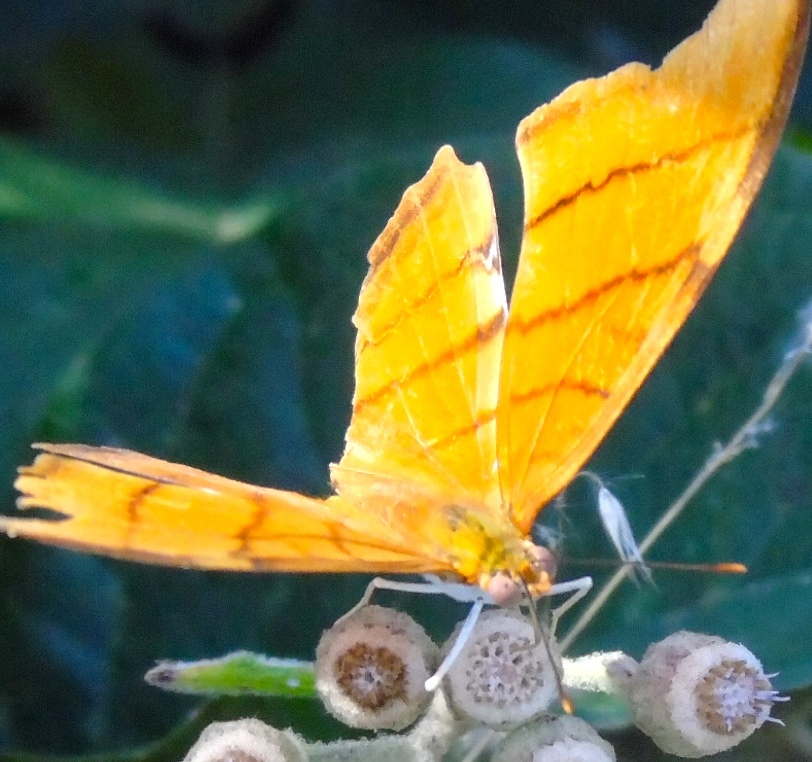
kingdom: Animalia
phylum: Arthropoda
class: Insecta
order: Lepidoptera
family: Nymphalidae
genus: Marpesia
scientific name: Marpesia petreus
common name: Red dagger wing
